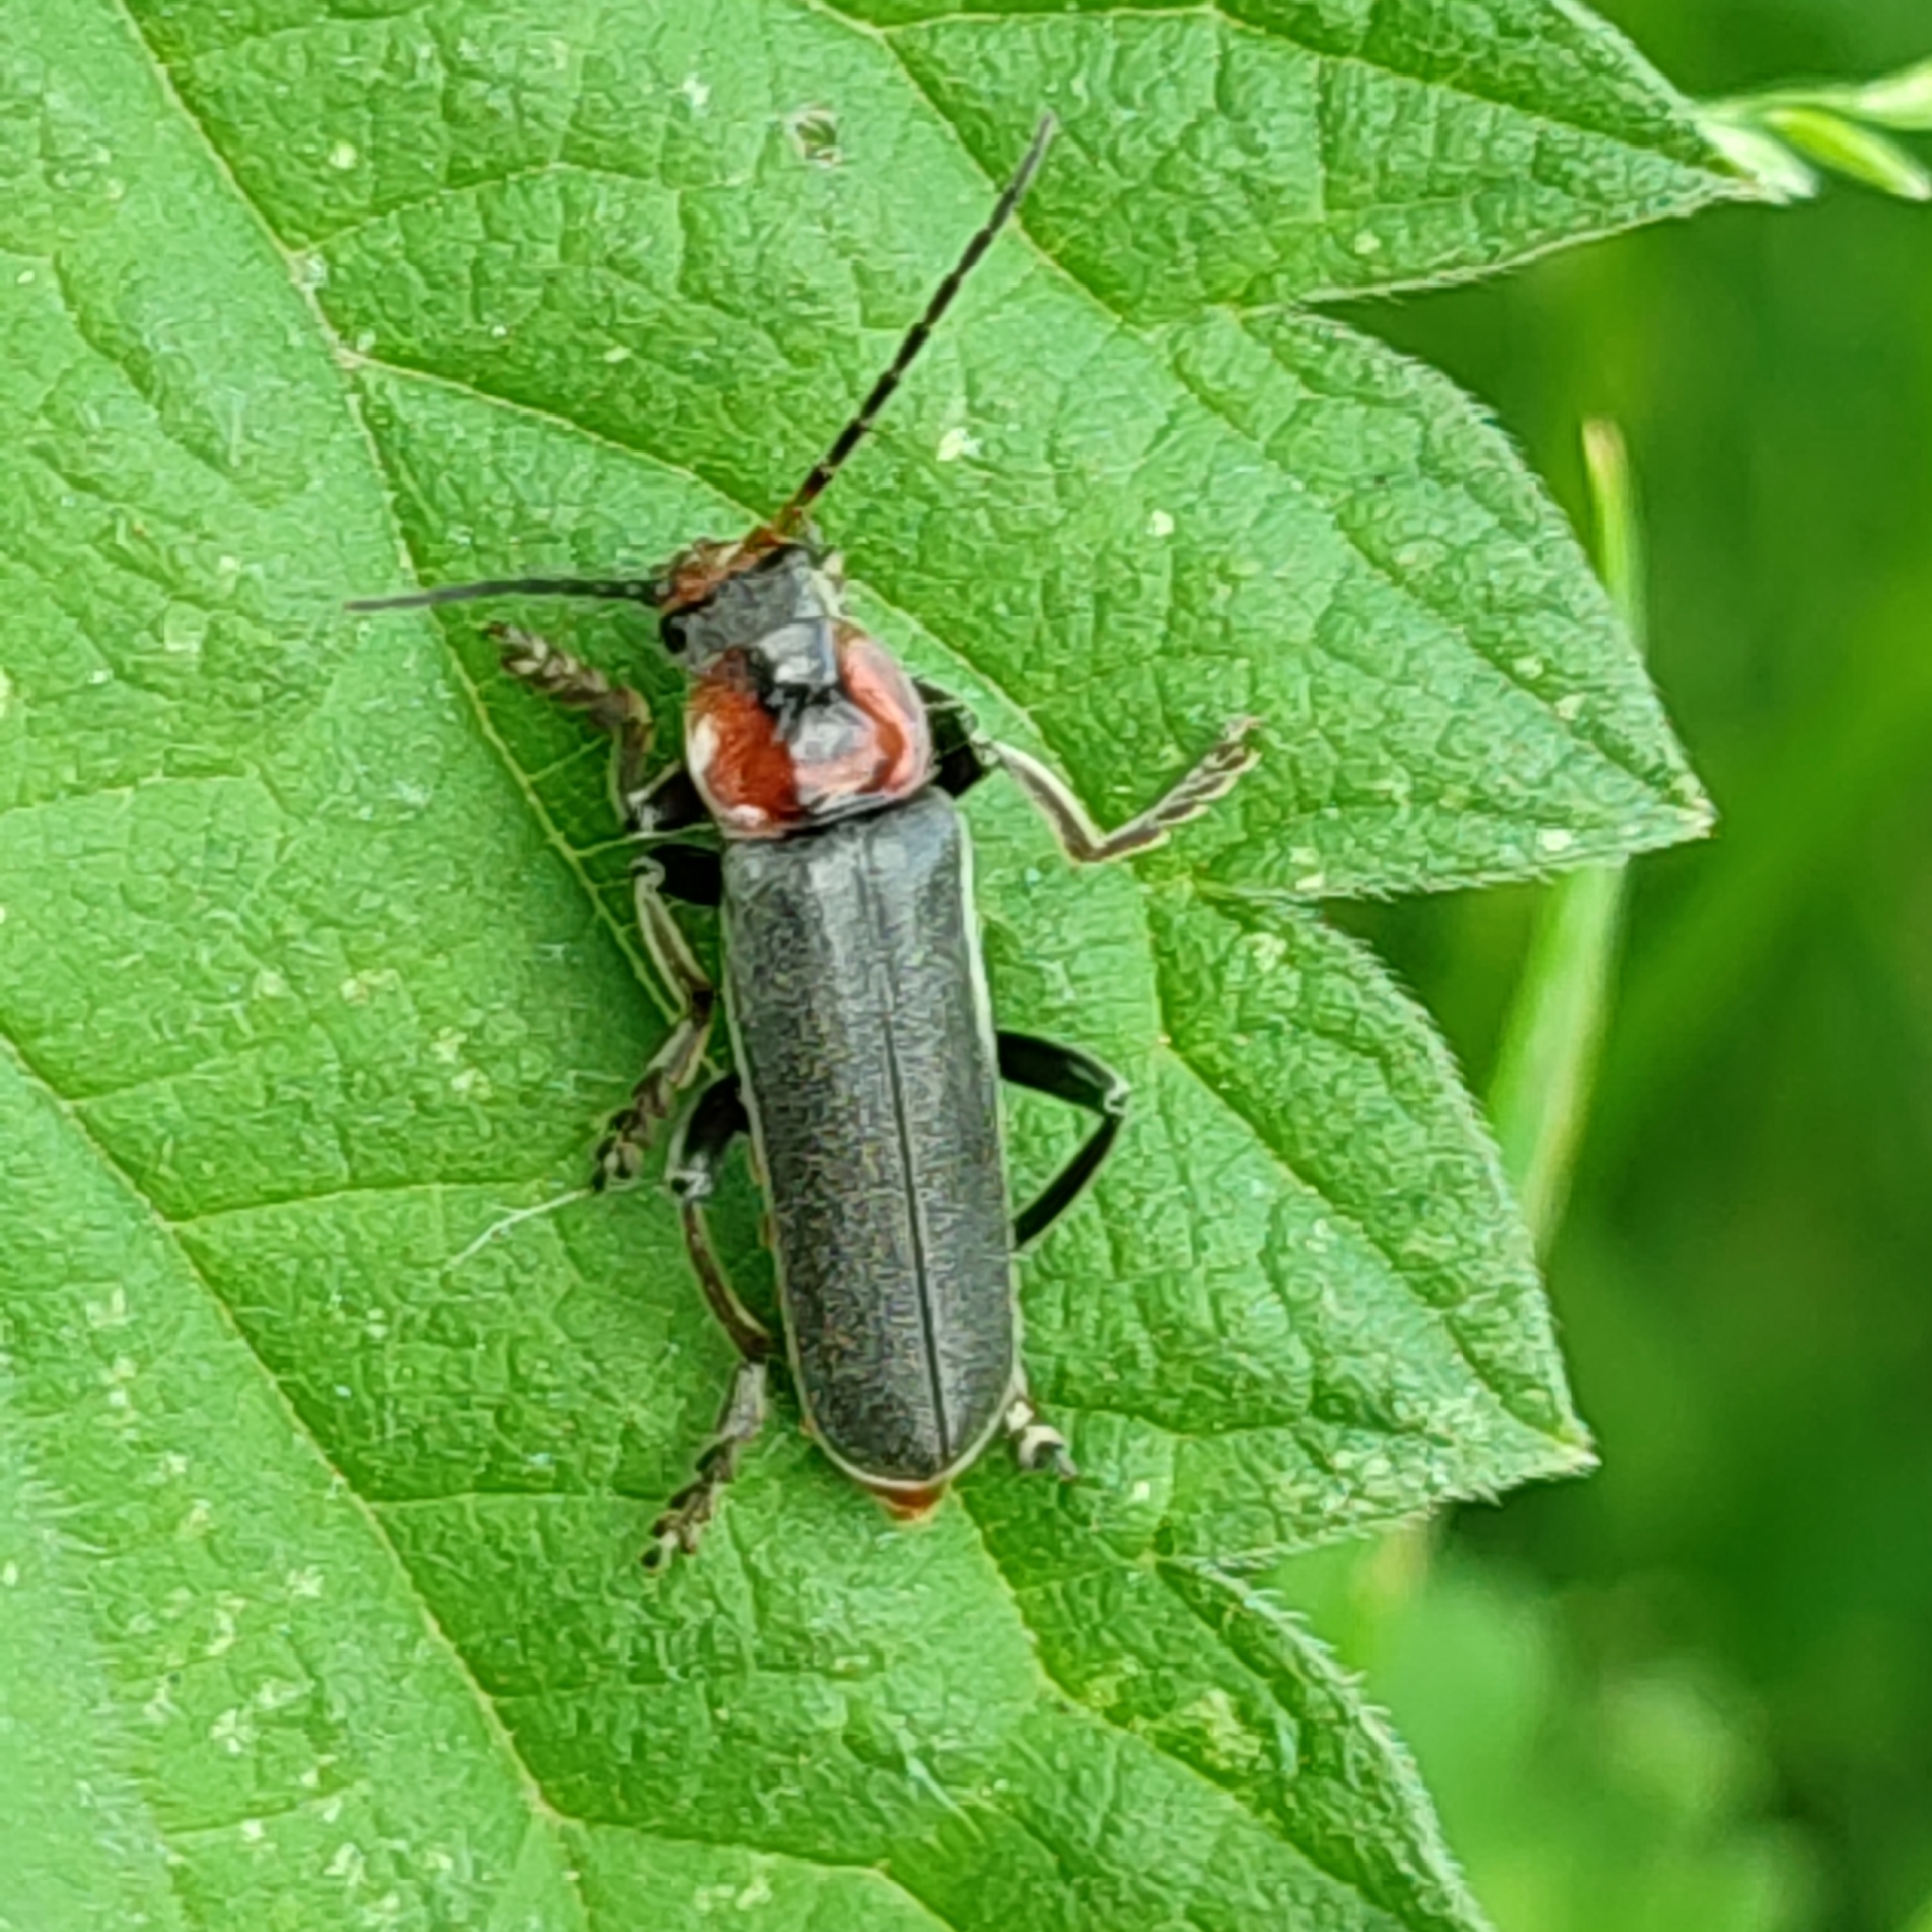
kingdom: Animalia
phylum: Arthropoda
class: Insecta
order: Coleoptera
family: Cantharidae
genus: Cantharis
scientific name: Cantharis fusca
